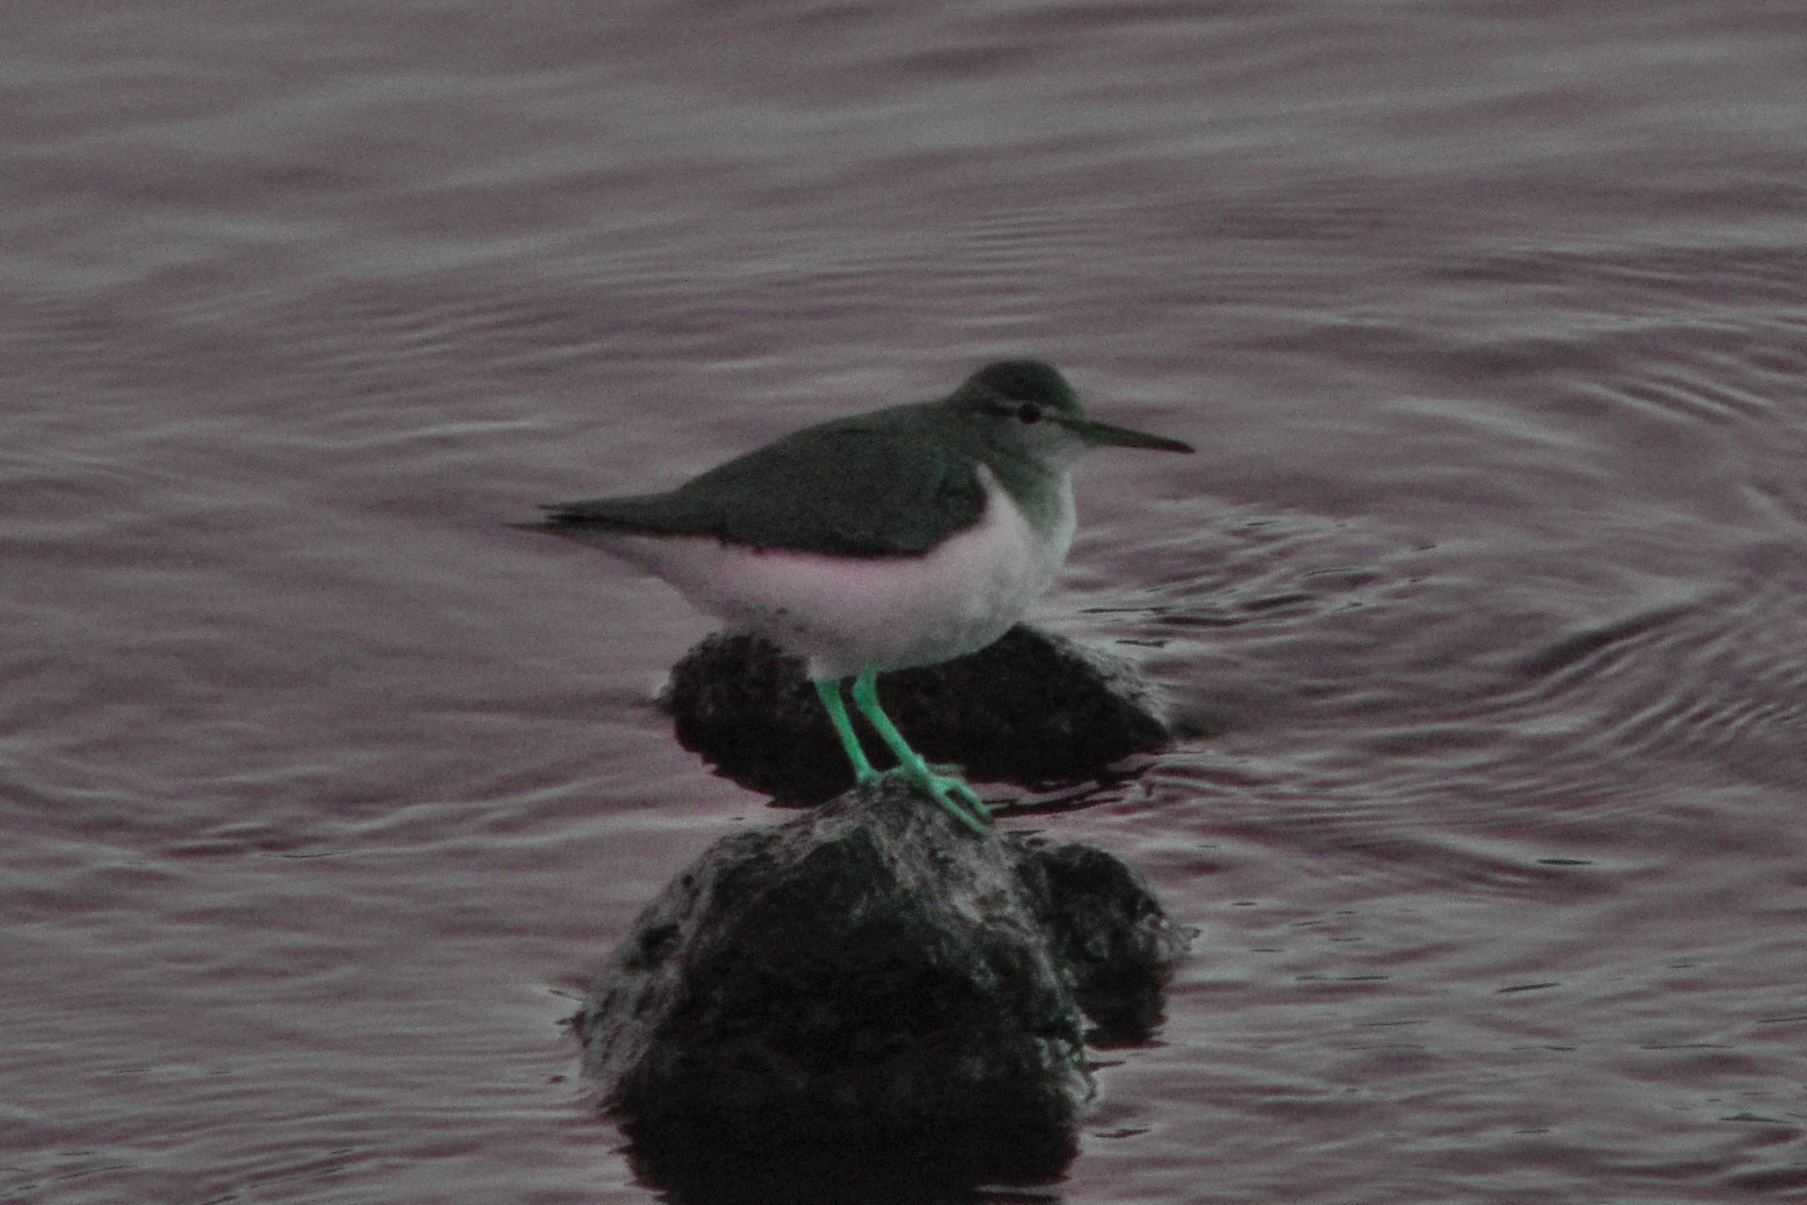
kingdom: Animalia
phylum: Chordata
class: Aves
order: Charadriiformes
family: Scolopacidae
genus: Actitis
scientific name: Actitis macularius
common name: Spotted sandpiper
